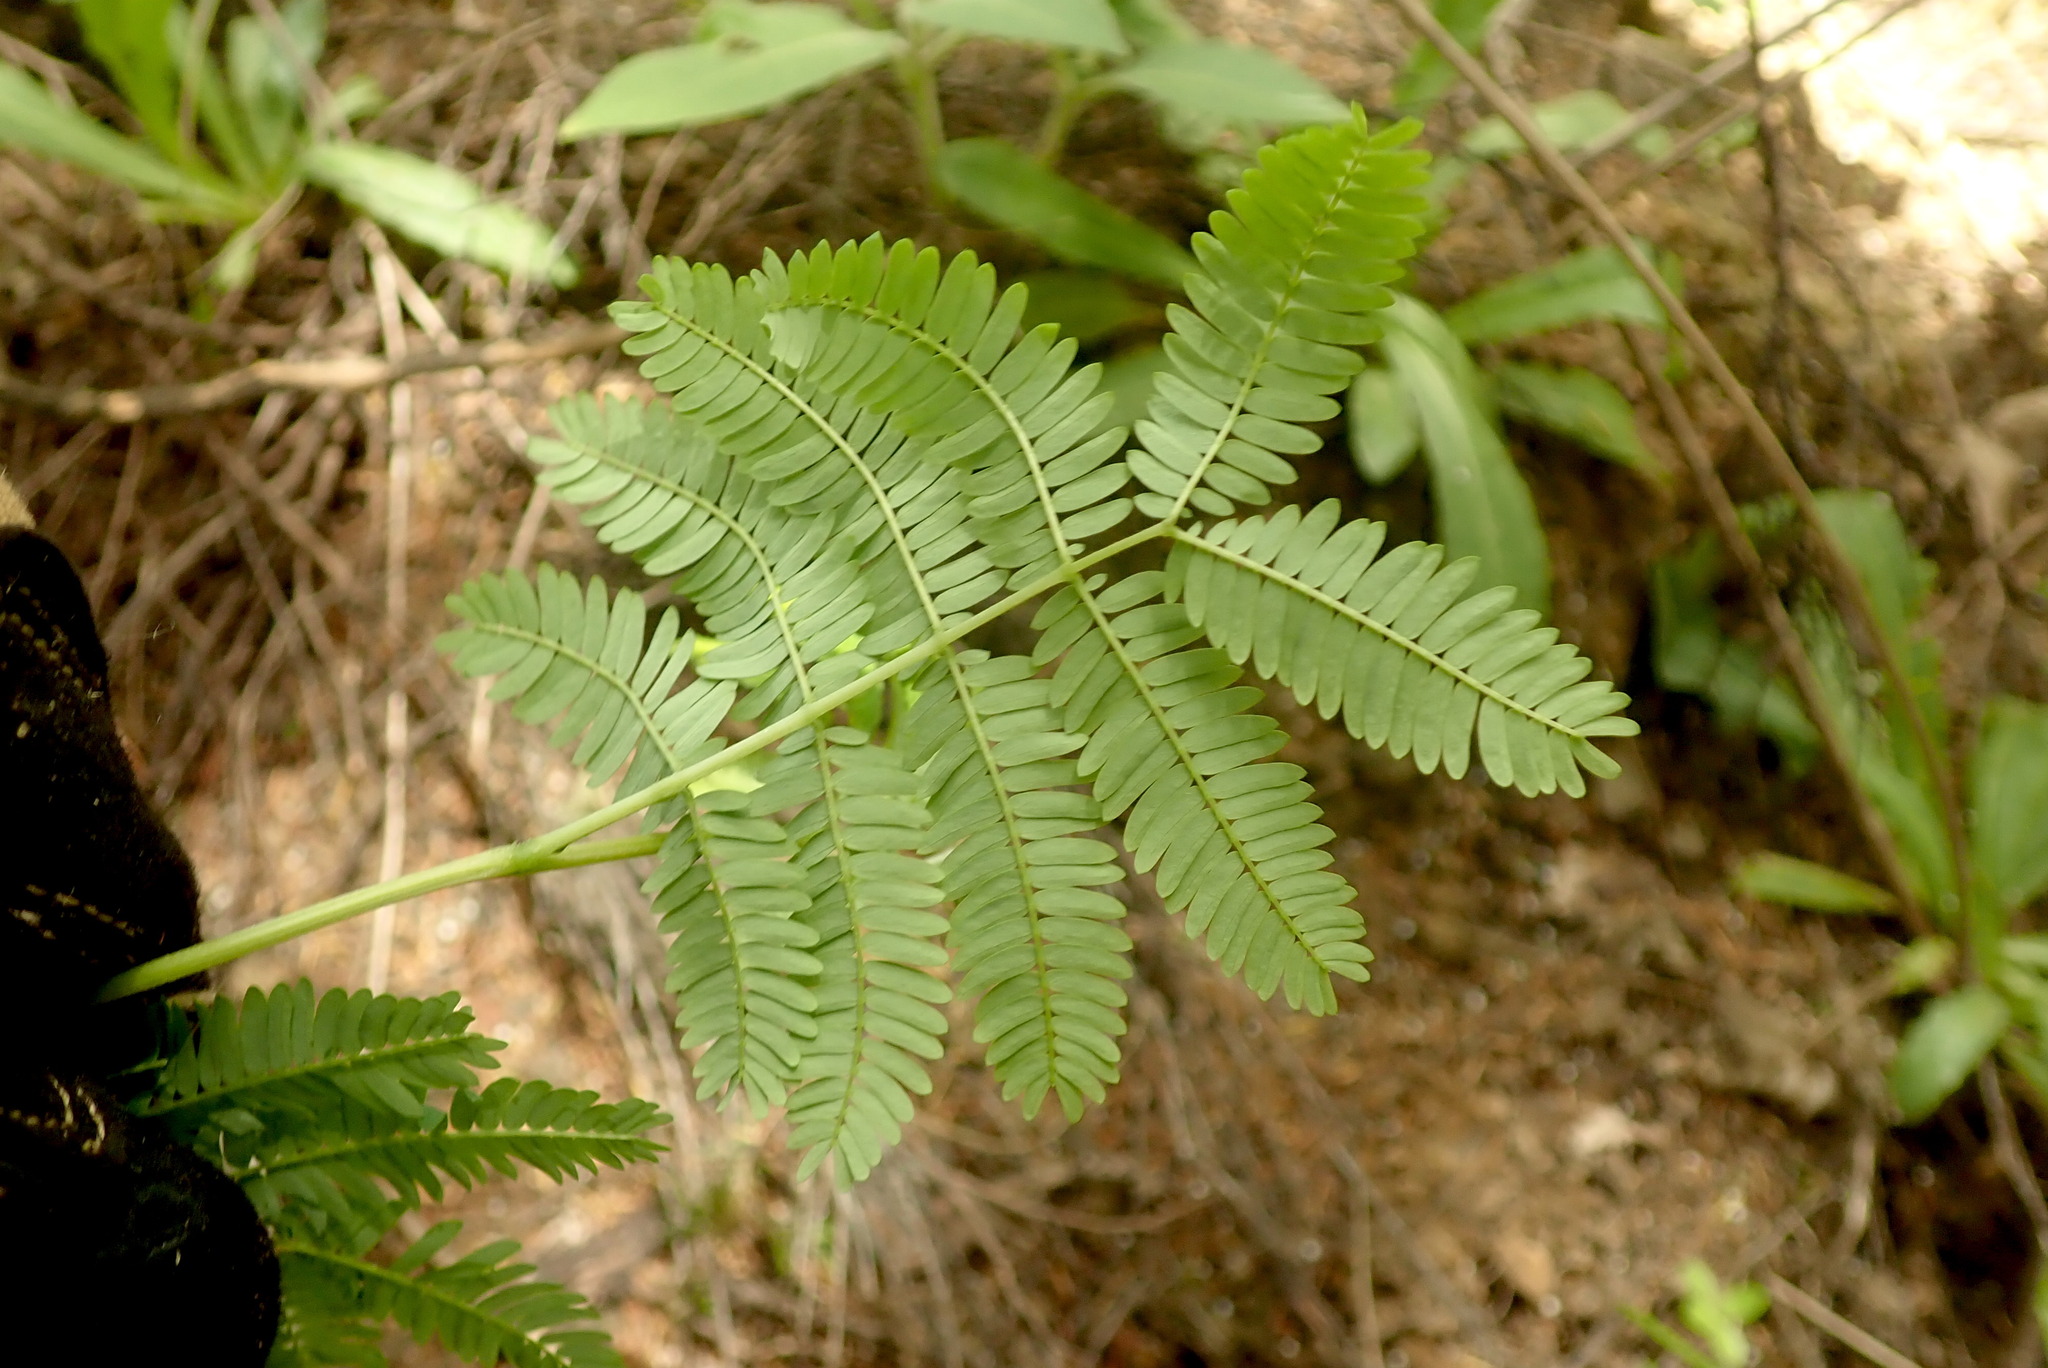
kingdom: Plantae
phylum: Tracheophyta
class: Magnoliopsida
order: Fabales
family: Fabaceae
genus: Paraserianthes
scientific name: Paraserianthes lophantha
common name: Plume albizia
